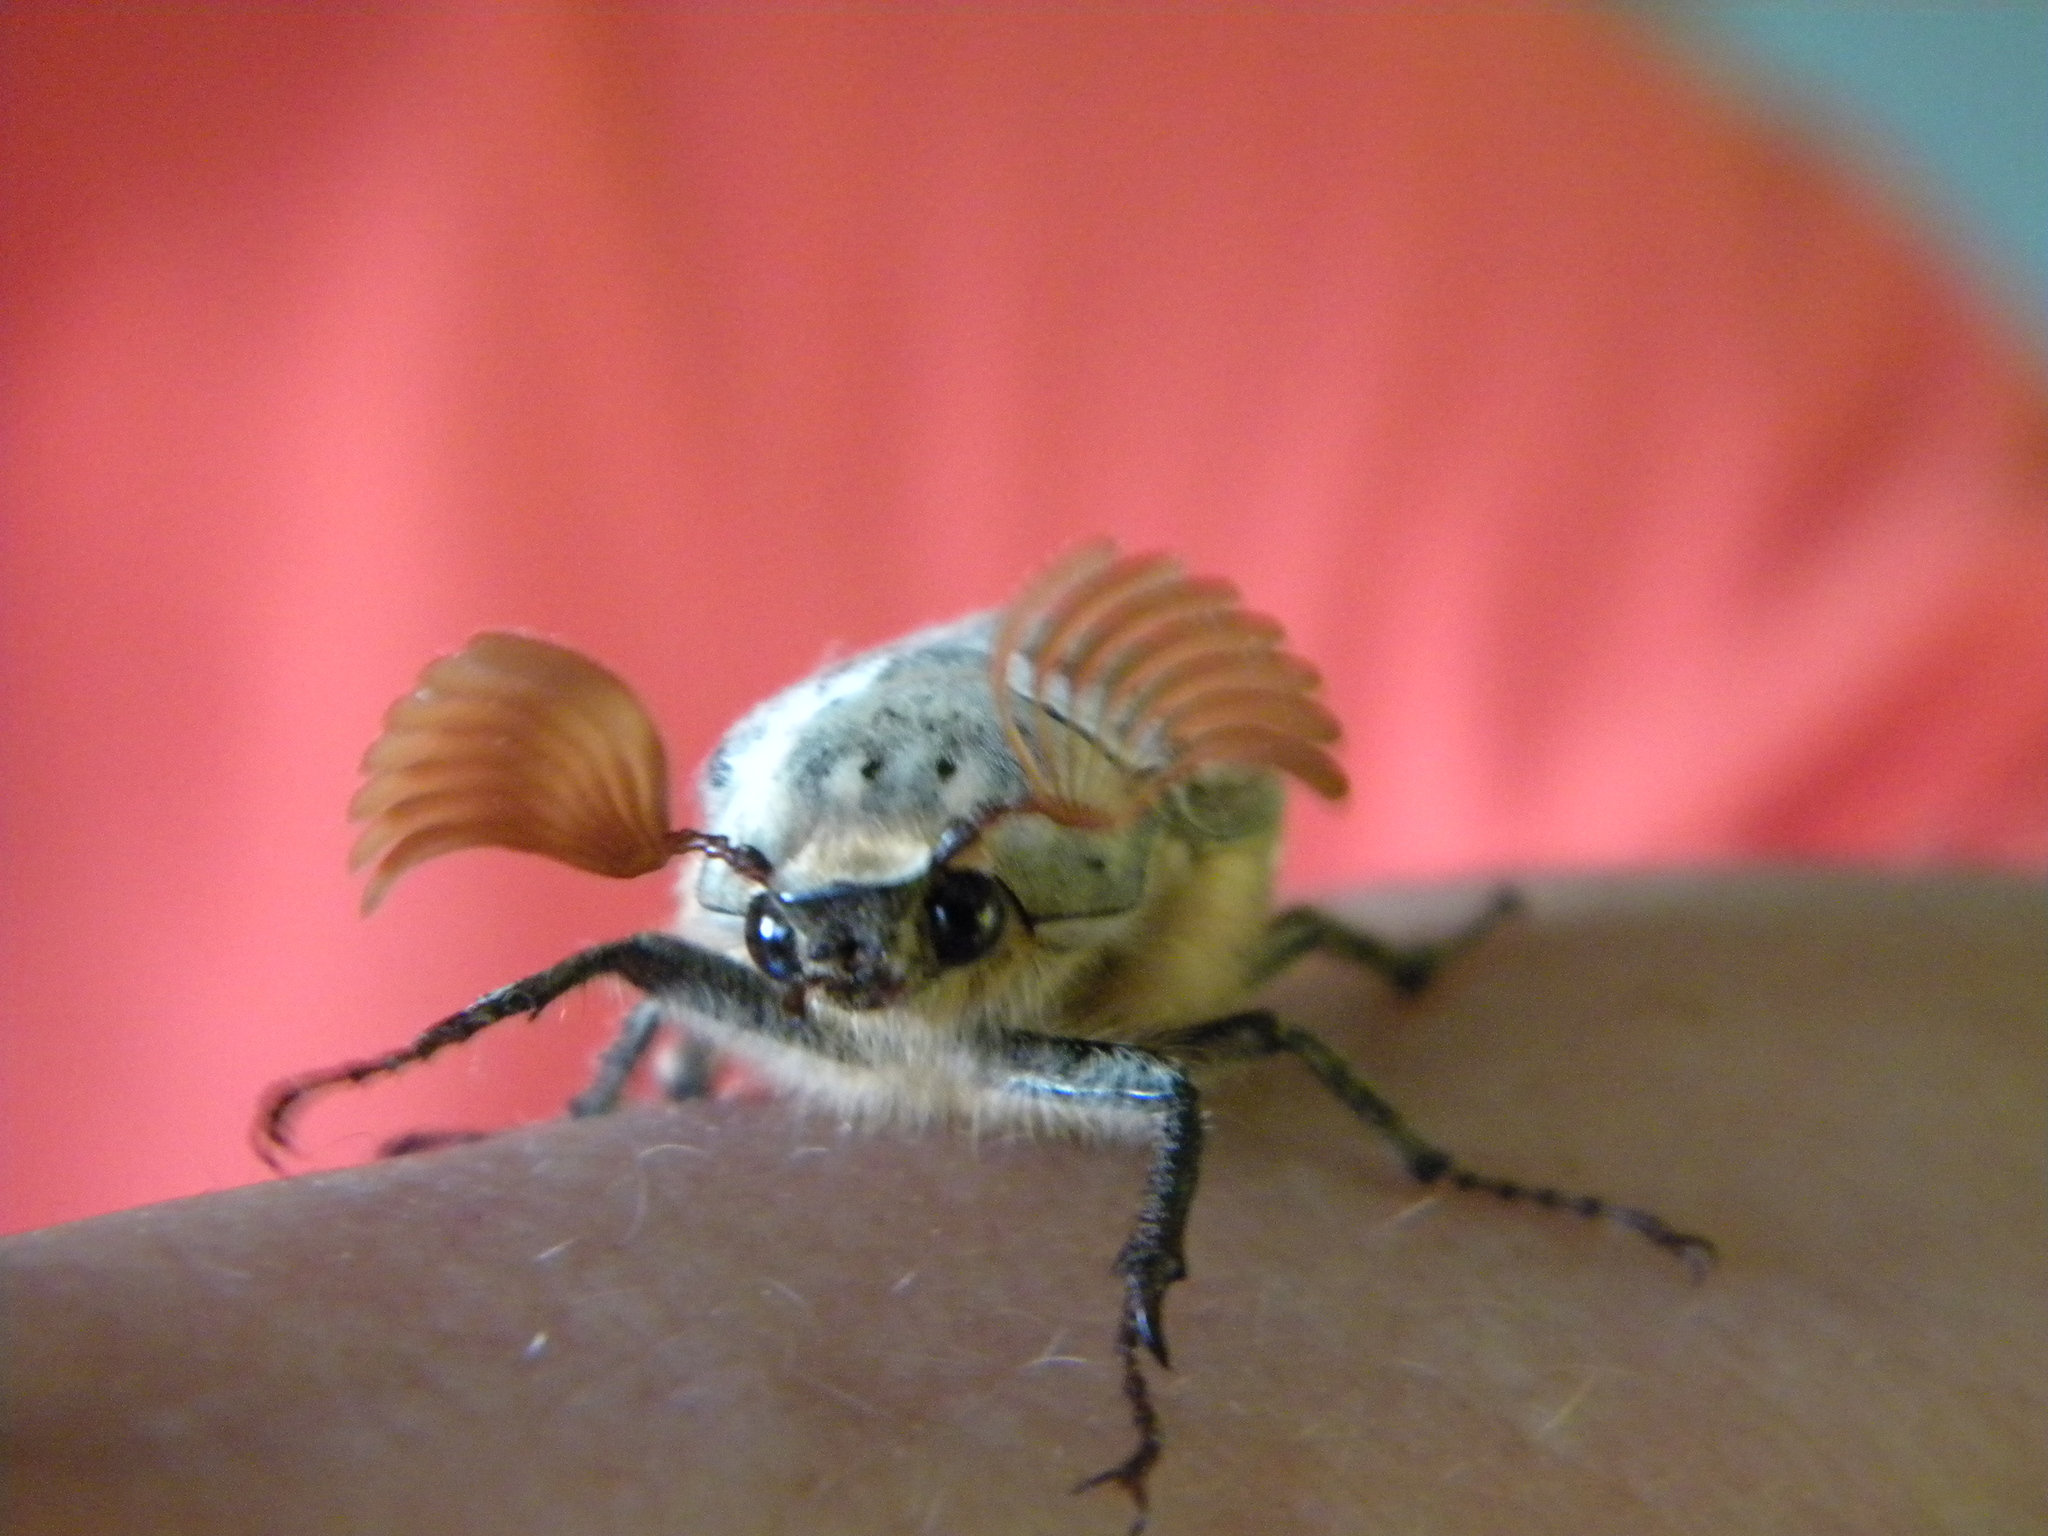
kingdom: Animalia
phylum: Arthropoda
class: Insecta
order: Coleoptera
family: Scarabaeidae
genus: Melolontha
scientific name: Melolontha melolontha
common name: Cockchafer maybeetle
